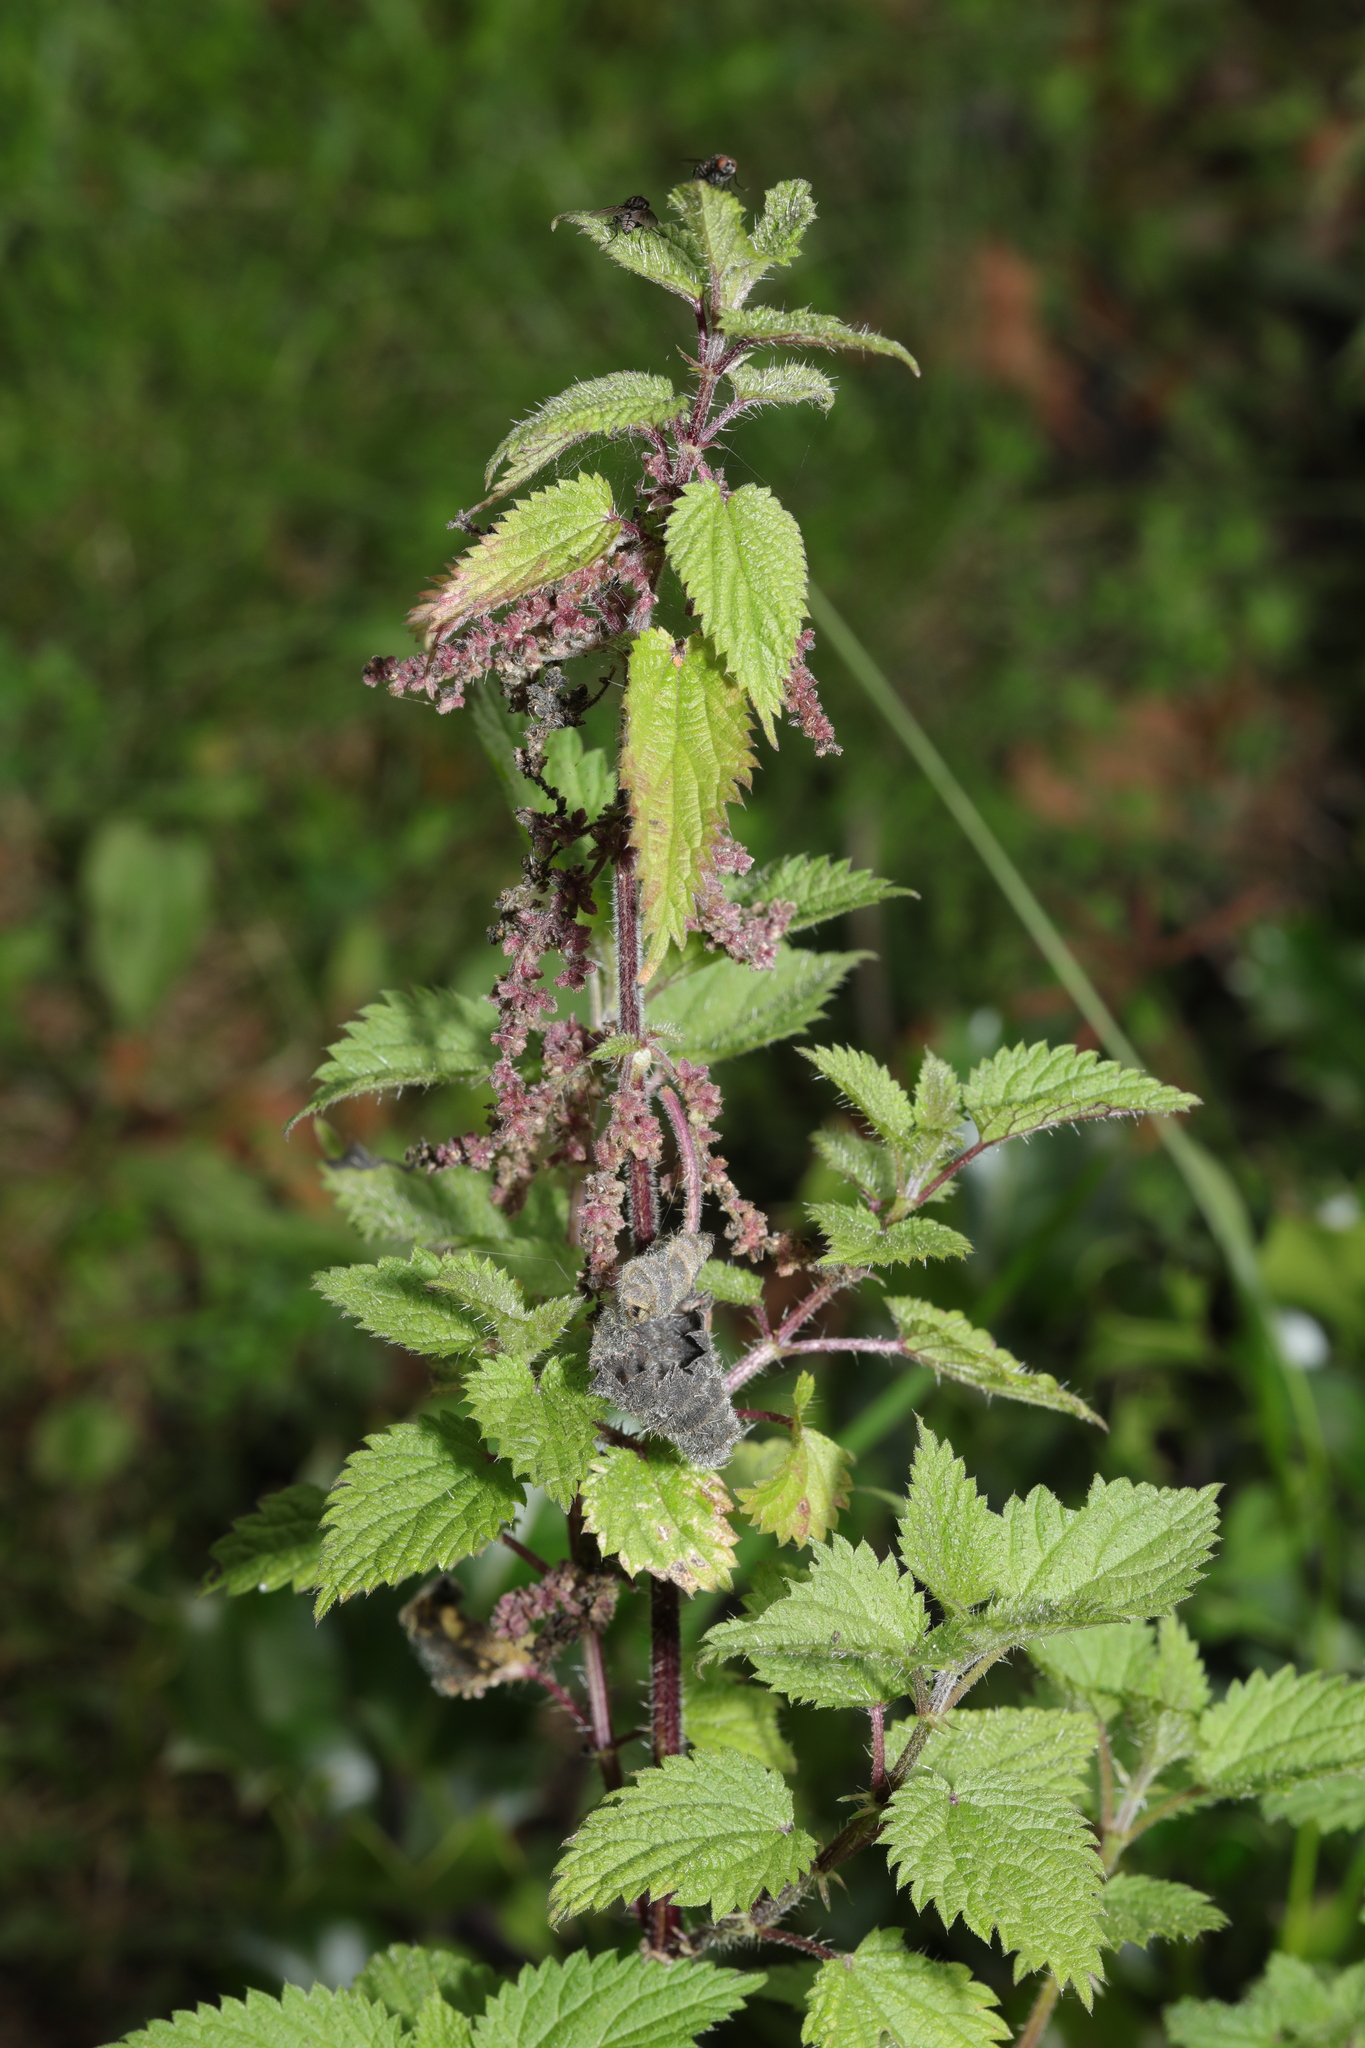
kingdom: Plantae
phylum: Tracheophyta
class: Magnoliopsida
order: Rosales
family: Urticaceae
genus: Urtica
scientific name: Urtica dioica
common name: Common nettle
